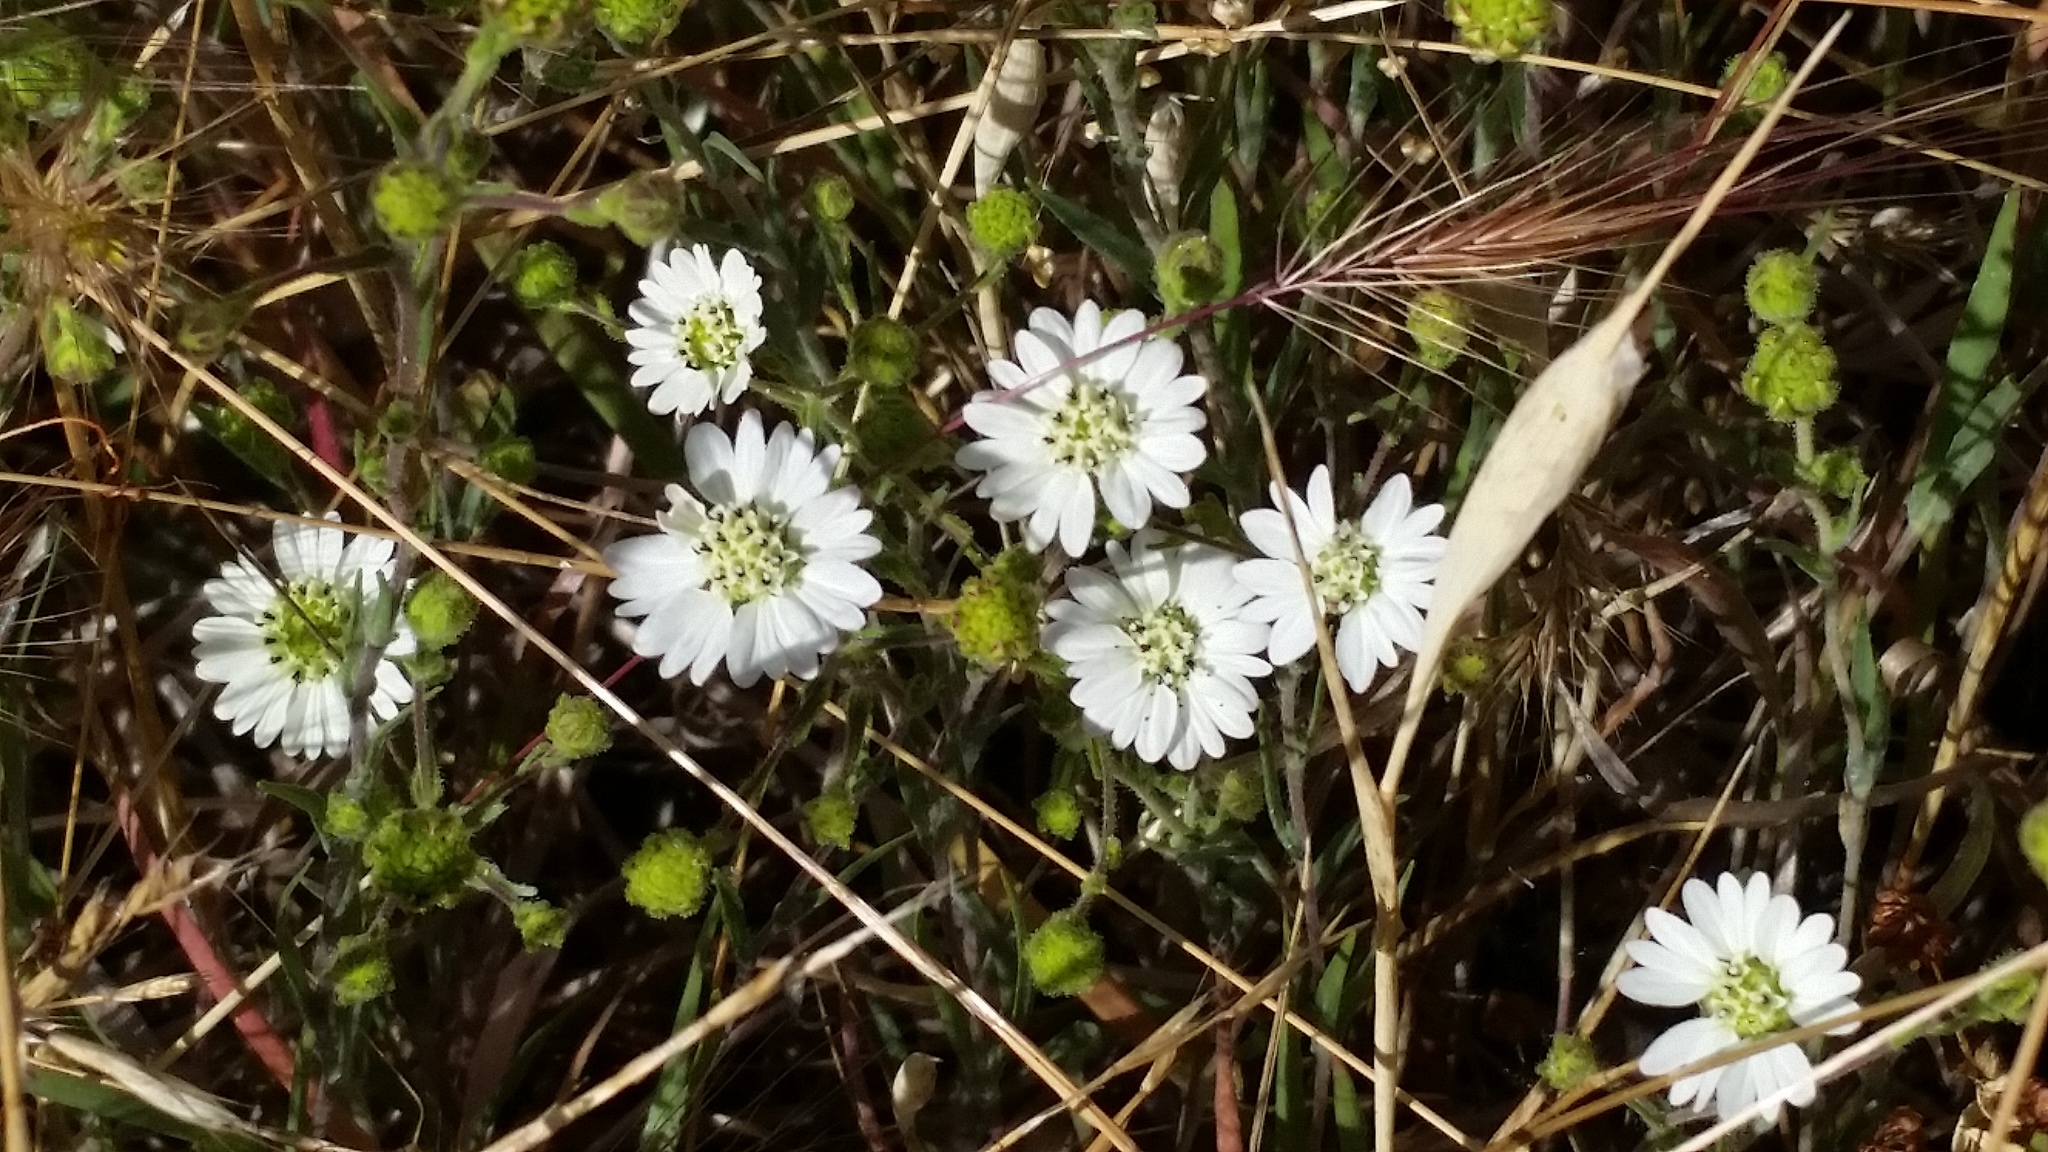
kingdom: Plantae
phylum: Tracheophyta
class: Magnoliopsida
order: Asterales
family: Asteraceae
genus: Hemizonia
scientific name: Hemizonia congesta
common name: Hayfield tarweed
